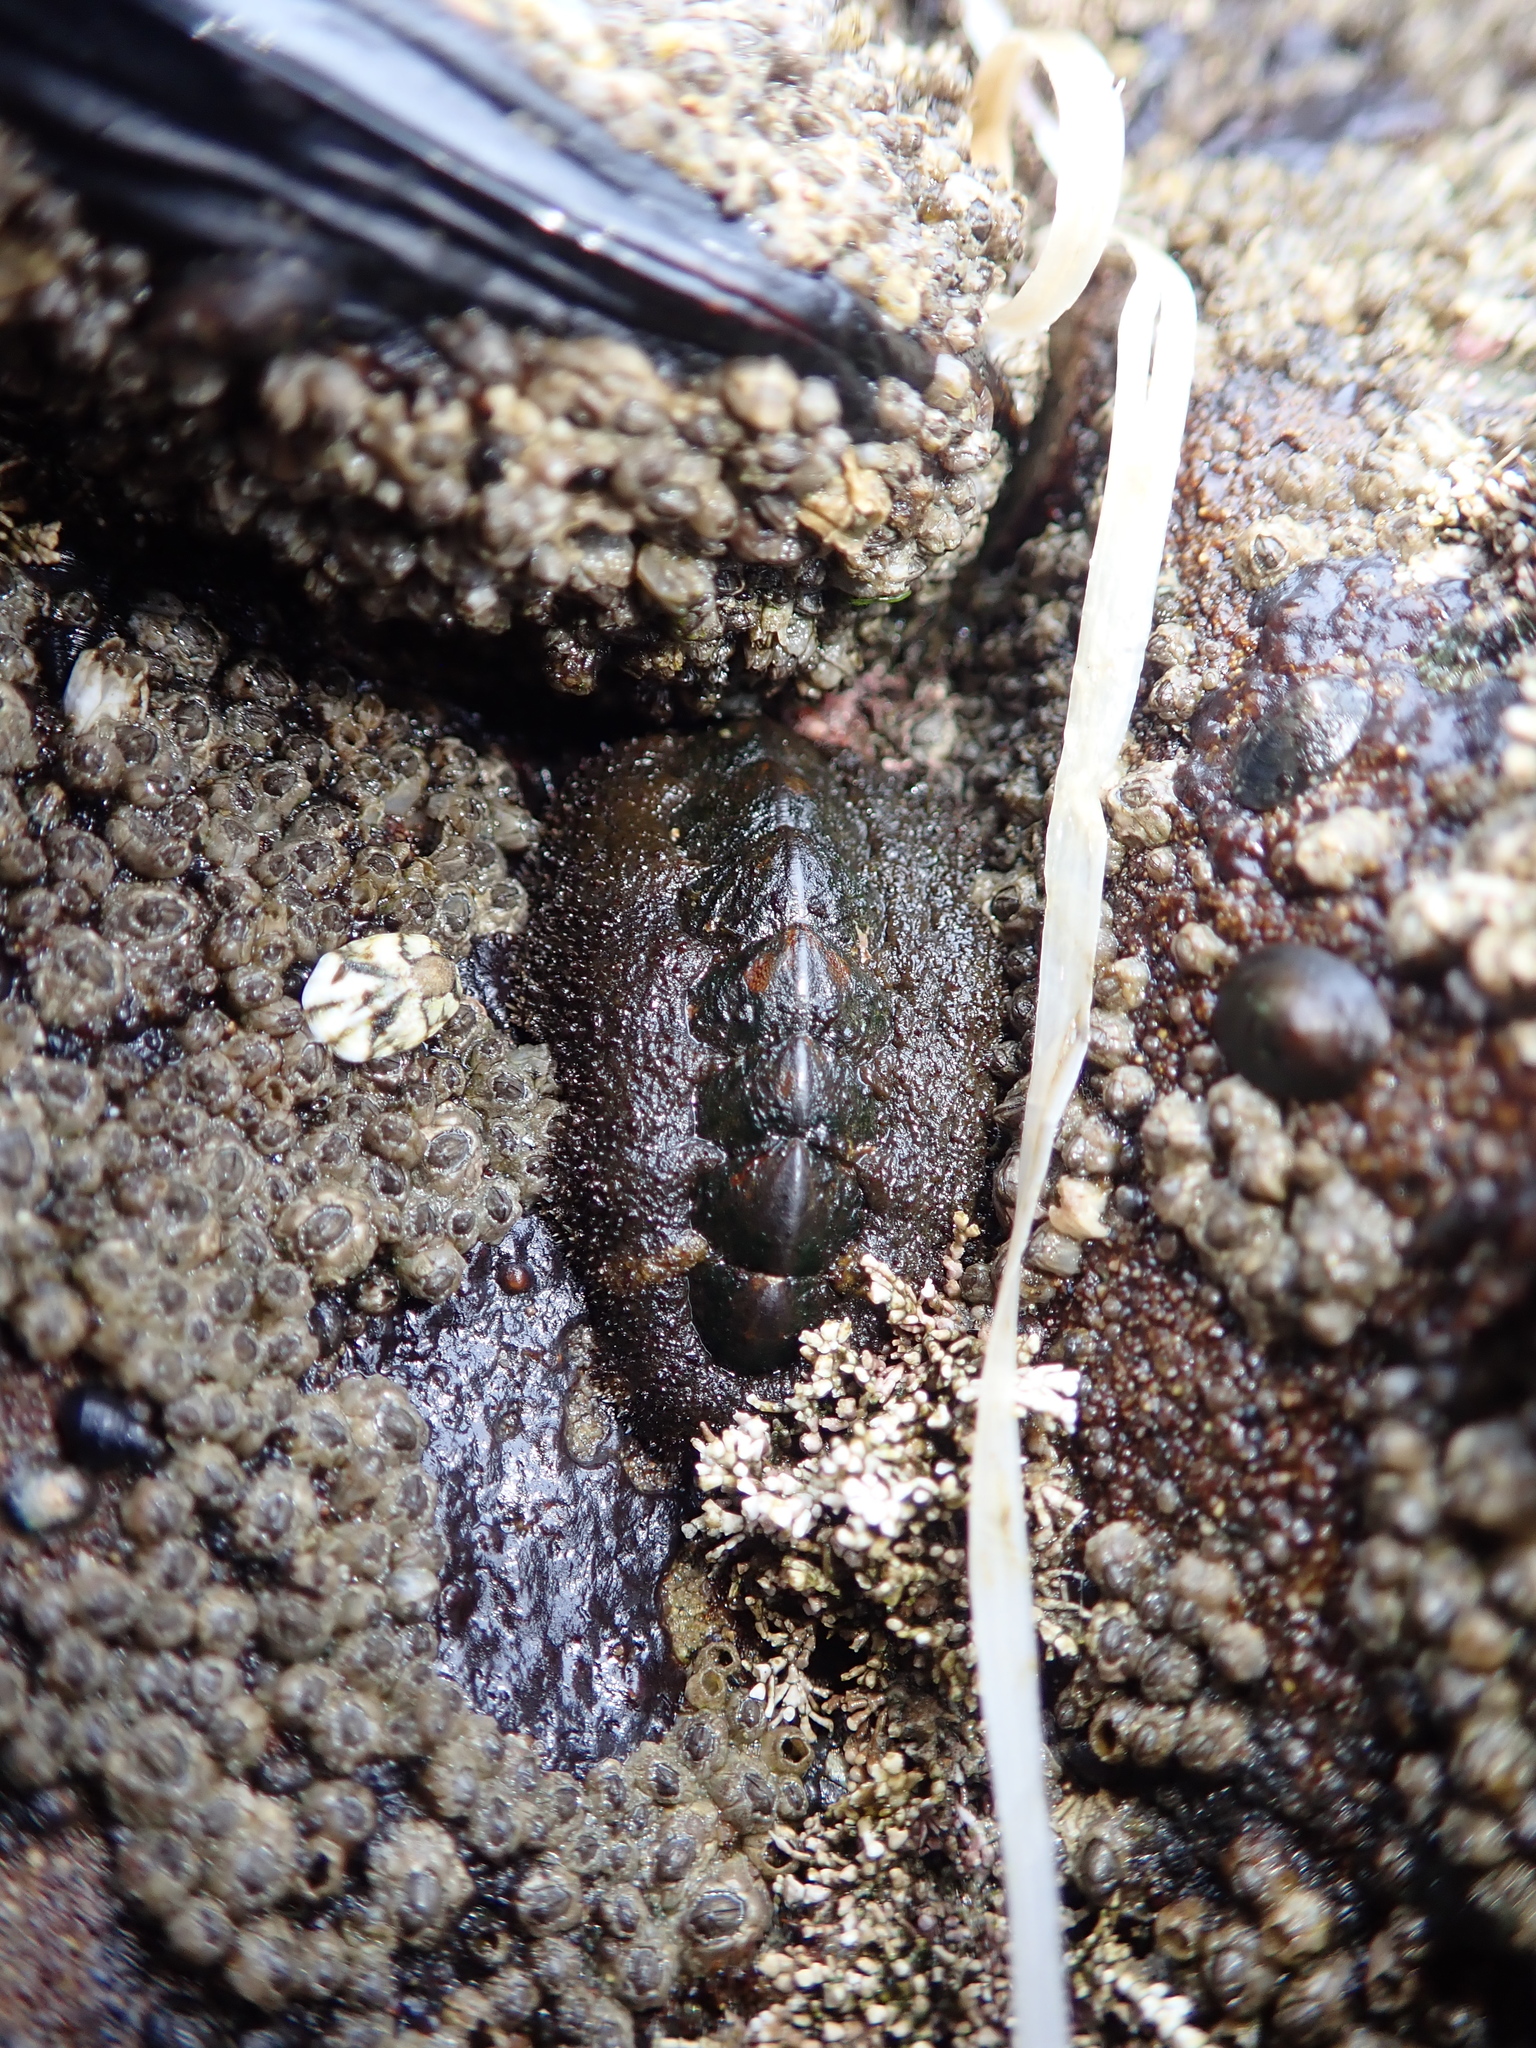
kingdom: Animalia
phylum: Mollusca
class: Polyplacophora
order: Chitonida
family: Tonicellidae
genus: Nuttallina
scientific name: Nuttallina californica
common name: California nuttall chiton
